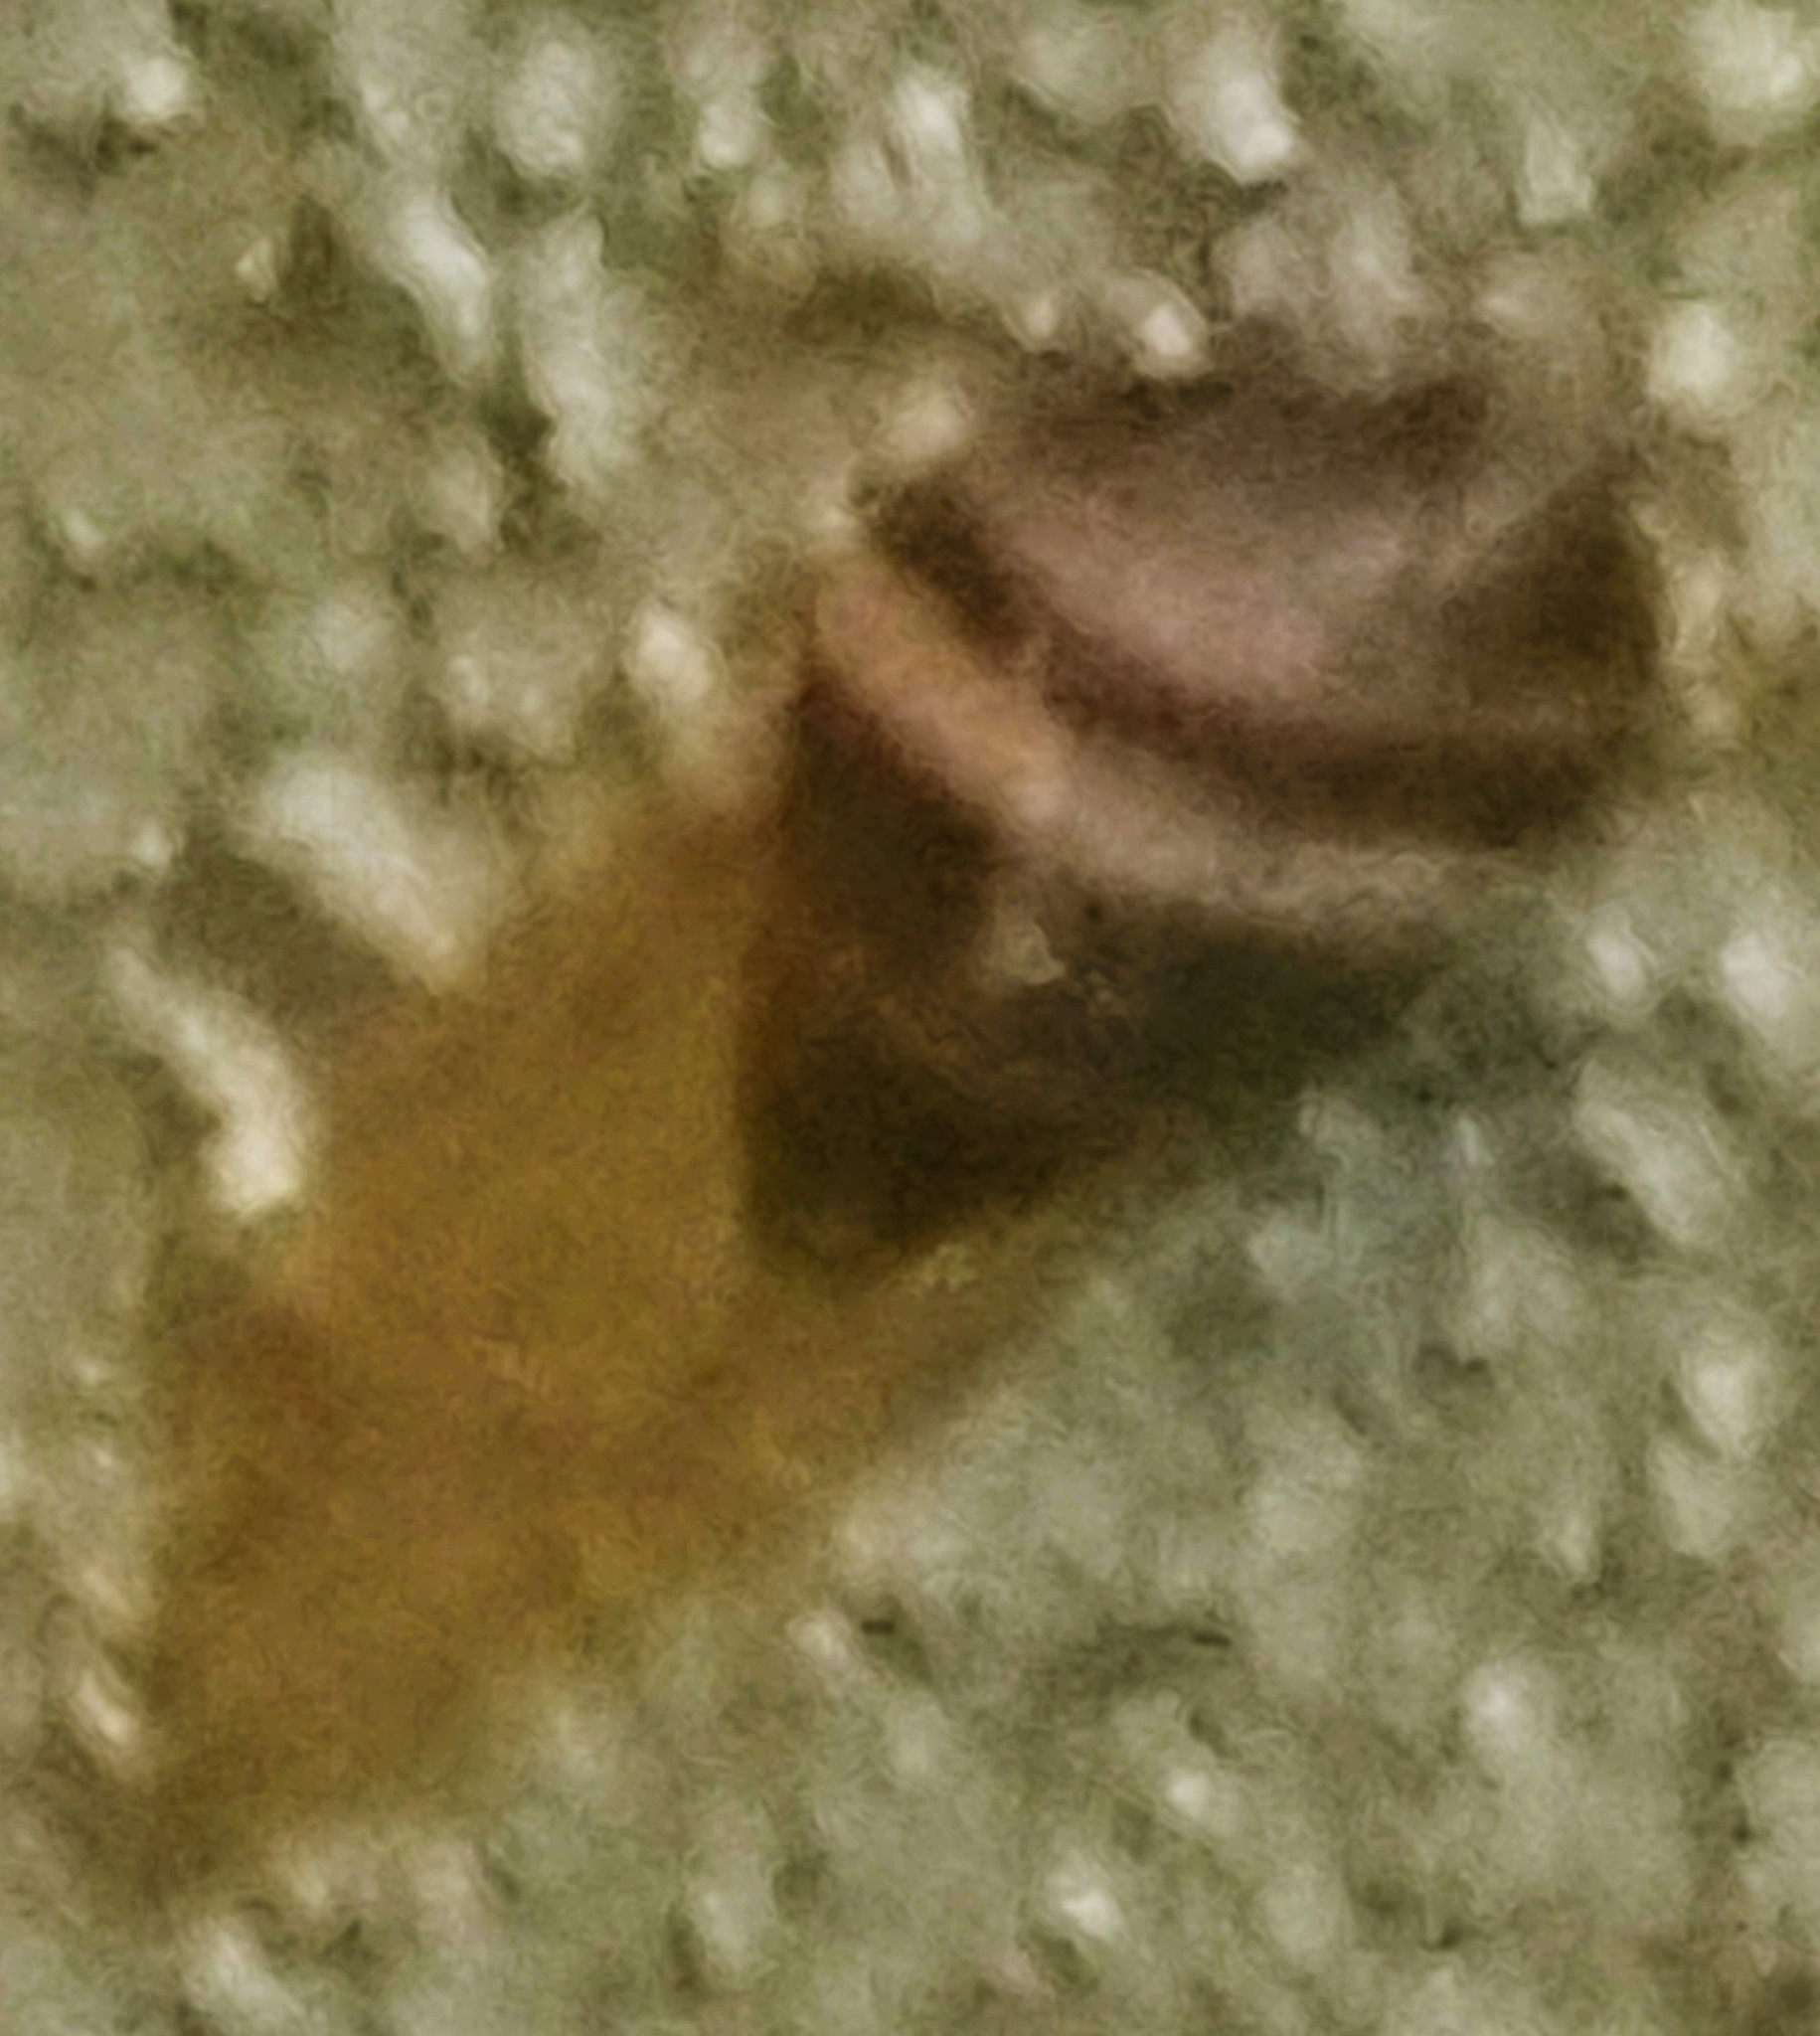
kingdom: Animalia
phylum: Mollusca
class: Gastropoda
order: Stylommatophora
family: Bulimulidae
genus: Bulimulus
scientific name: Bulimulus guadalupensis
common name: West indian bulimulus
